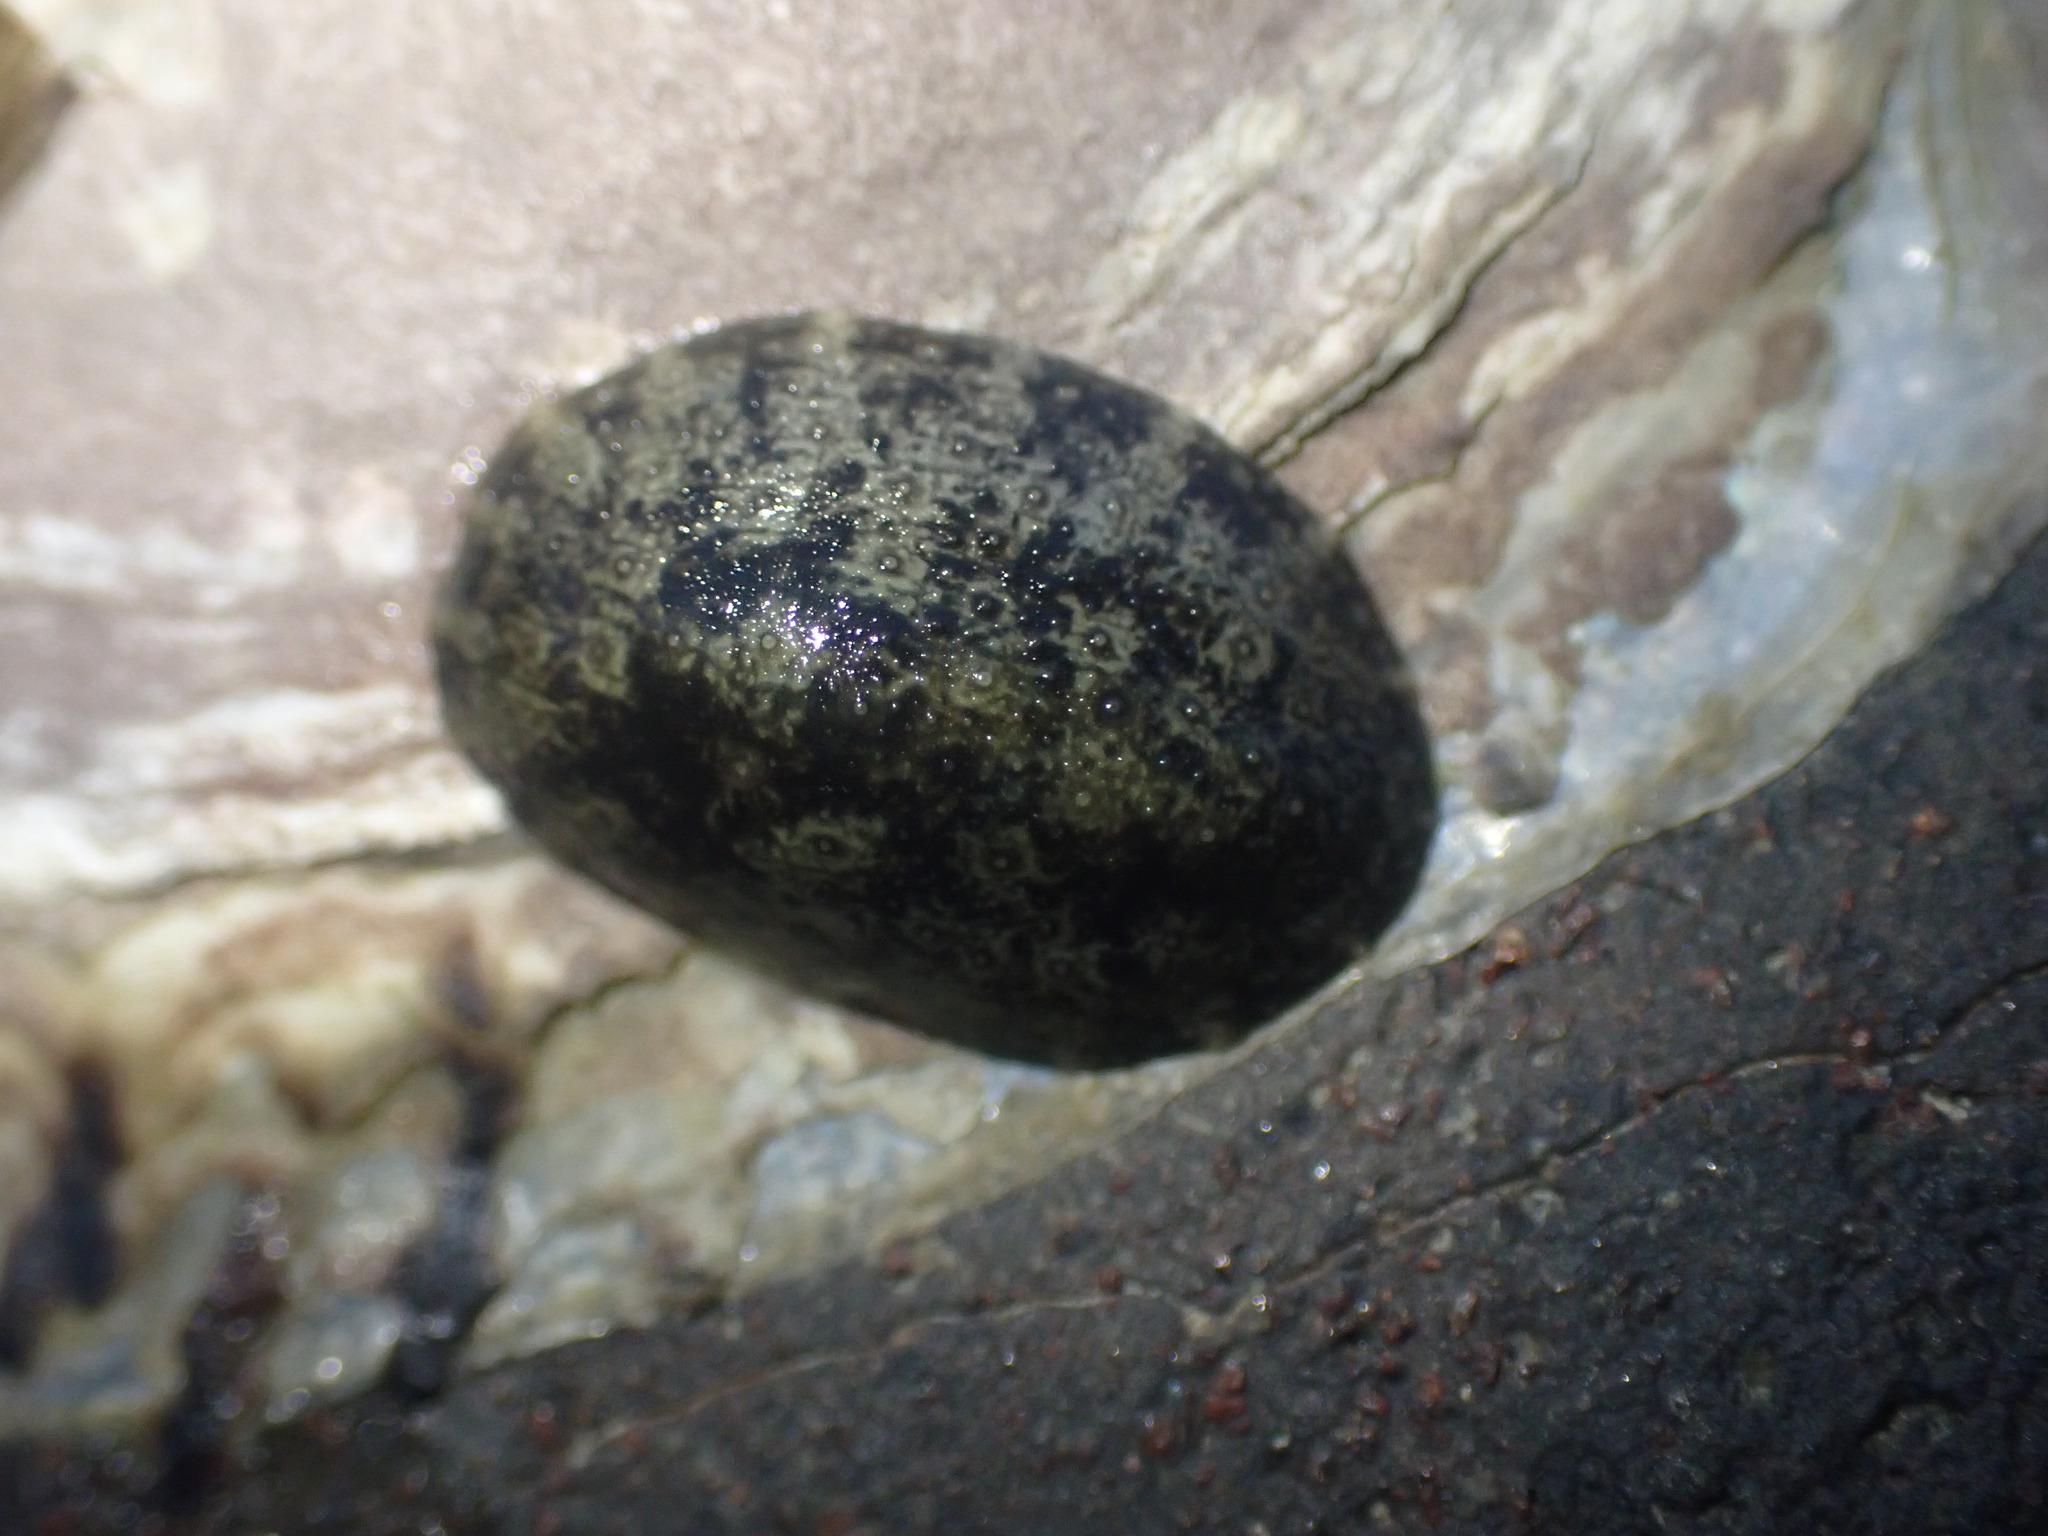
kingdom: Animalia
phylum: Mollusca
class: Gastropoda
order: Systellommatophora
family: Onchidiidae
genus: Onchidella
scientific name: Onchidella nigricans
